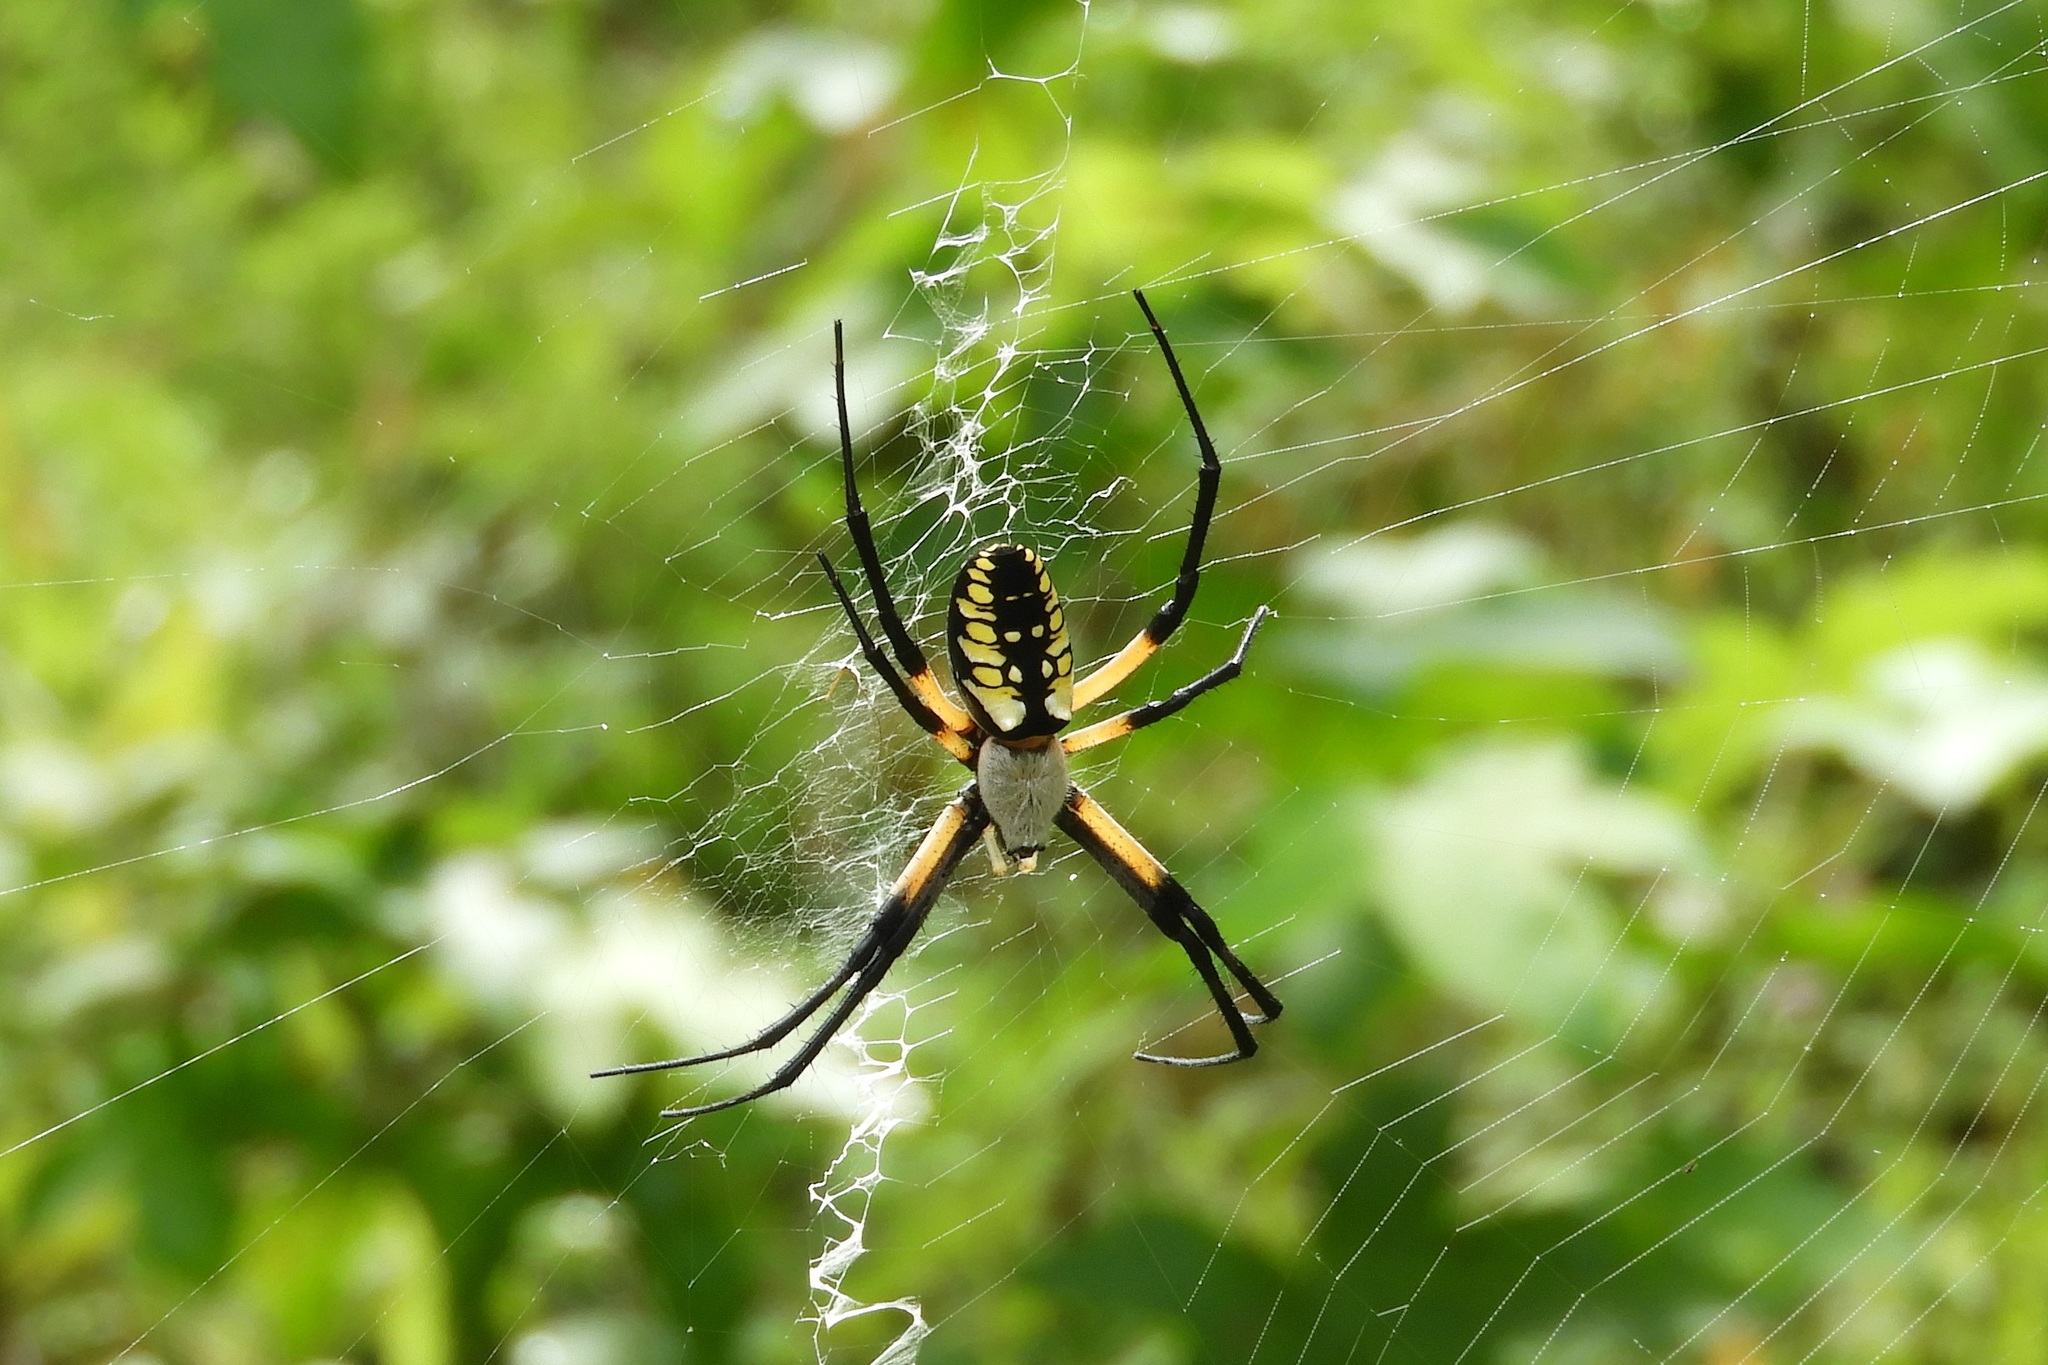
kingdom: Animalia
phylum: Arthropoda
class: Arachnida
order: Araneae
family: Araneidae
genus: Argiope
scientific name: Argiope aurantia
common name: Orb weavers
